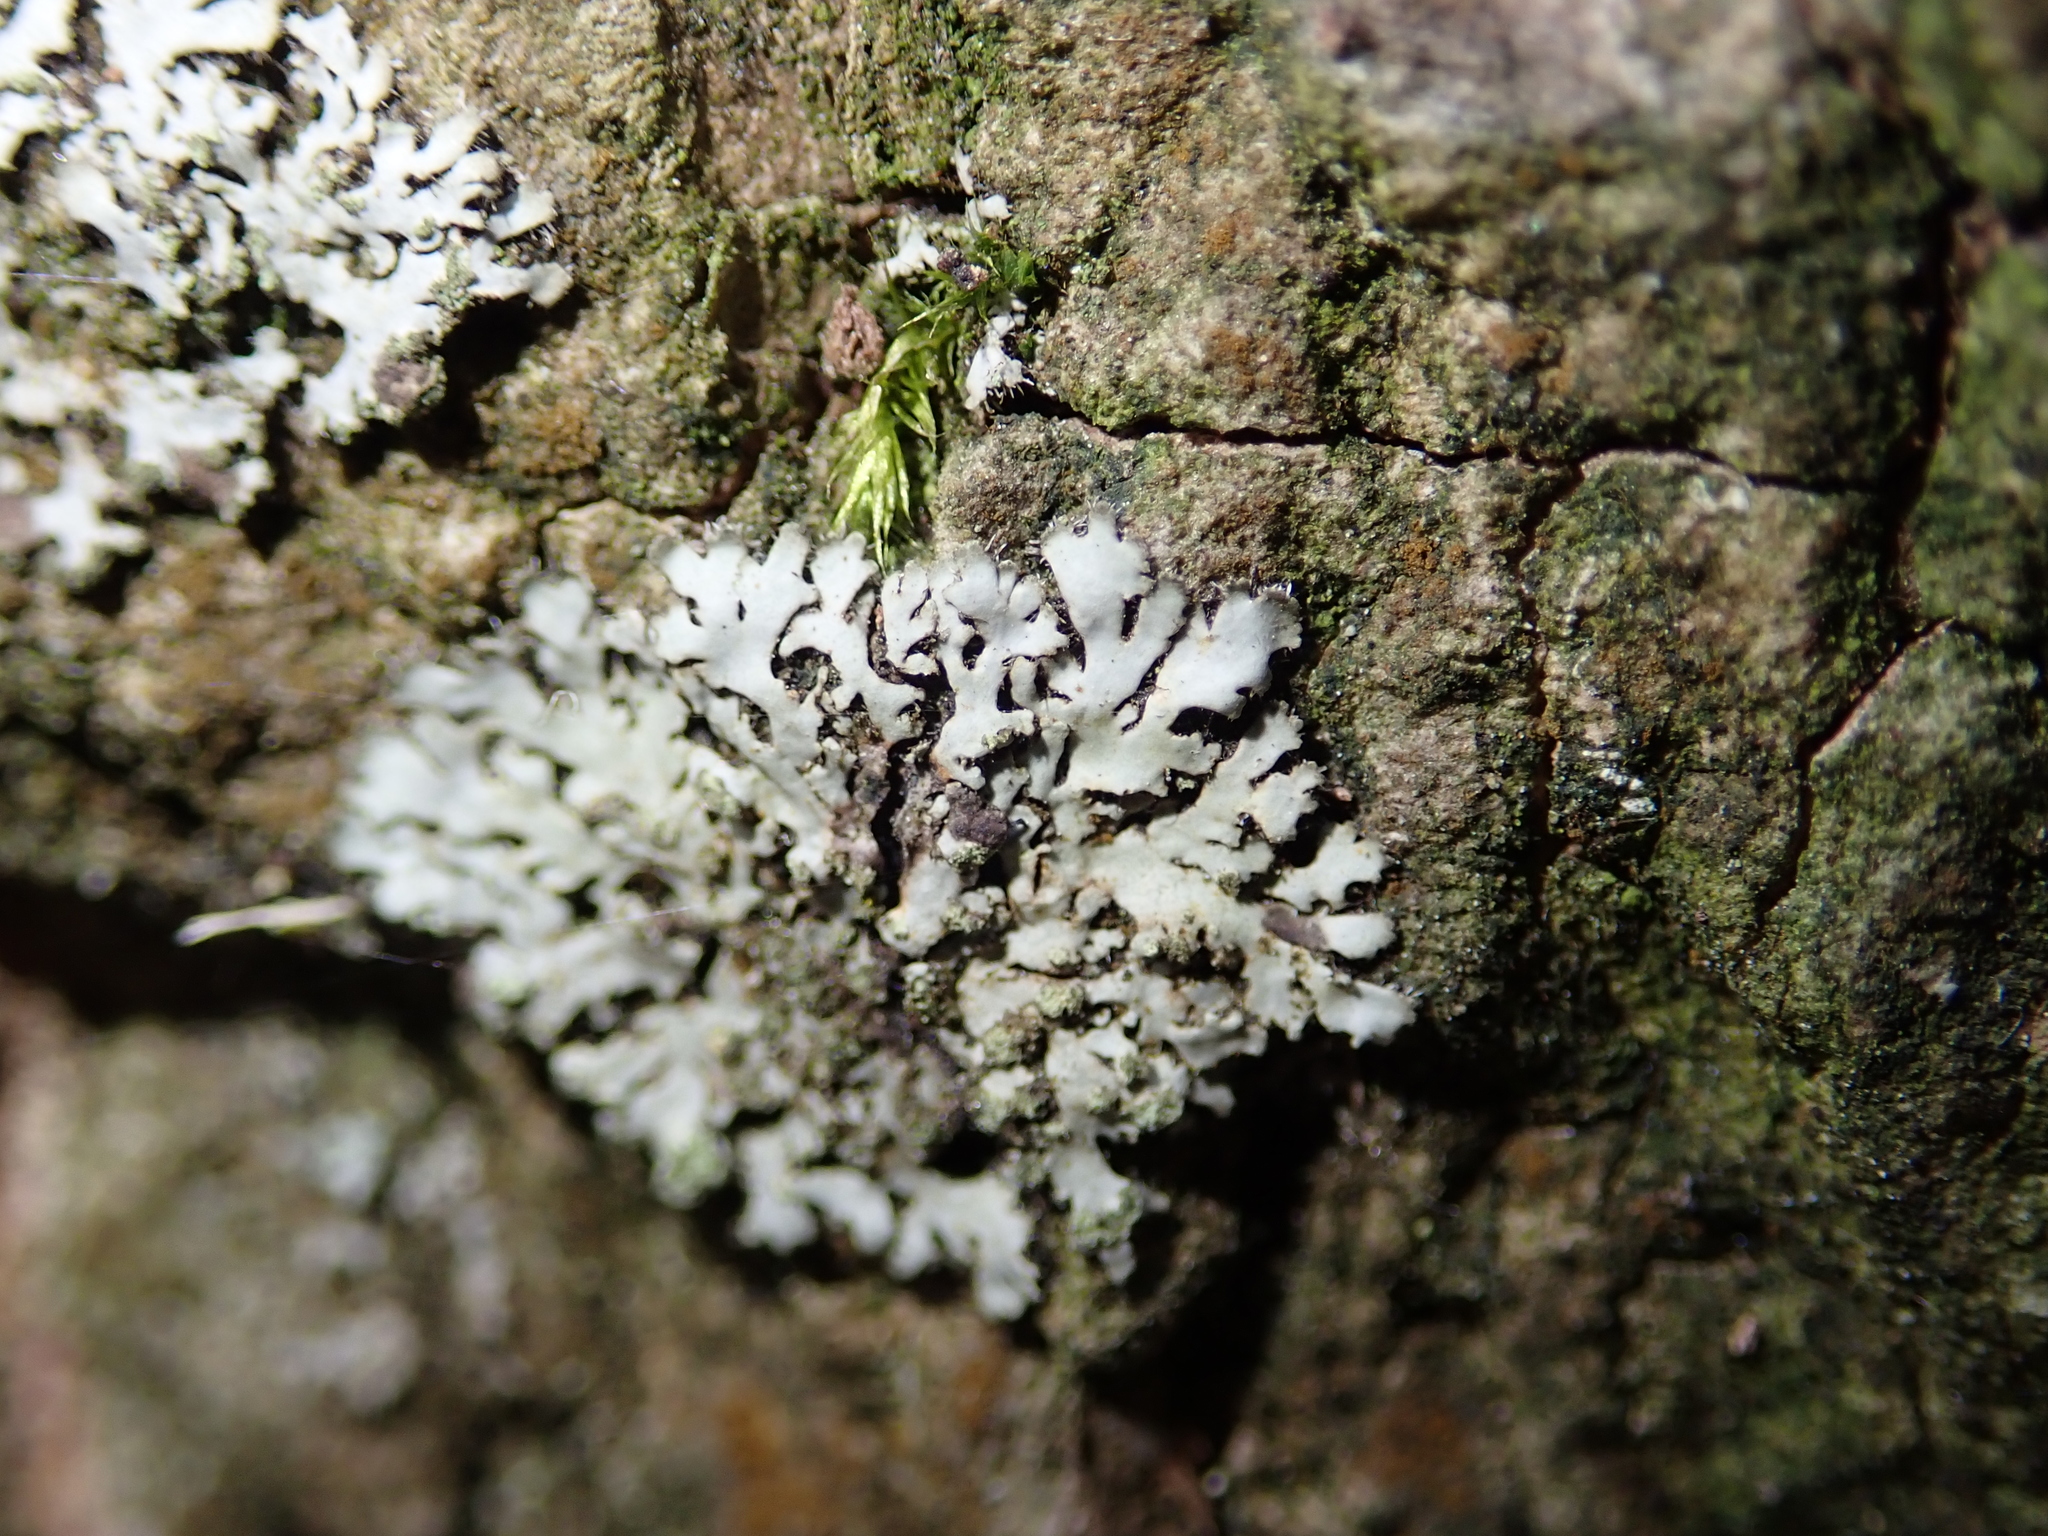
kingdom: Fungi
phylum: Ascomycota
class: Lecanoromycetes
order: Caliciales
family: Physciaceae
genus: Phaeophyscia
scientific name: Phaeophyscia orbicularis
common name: Mealy shadow lichen
